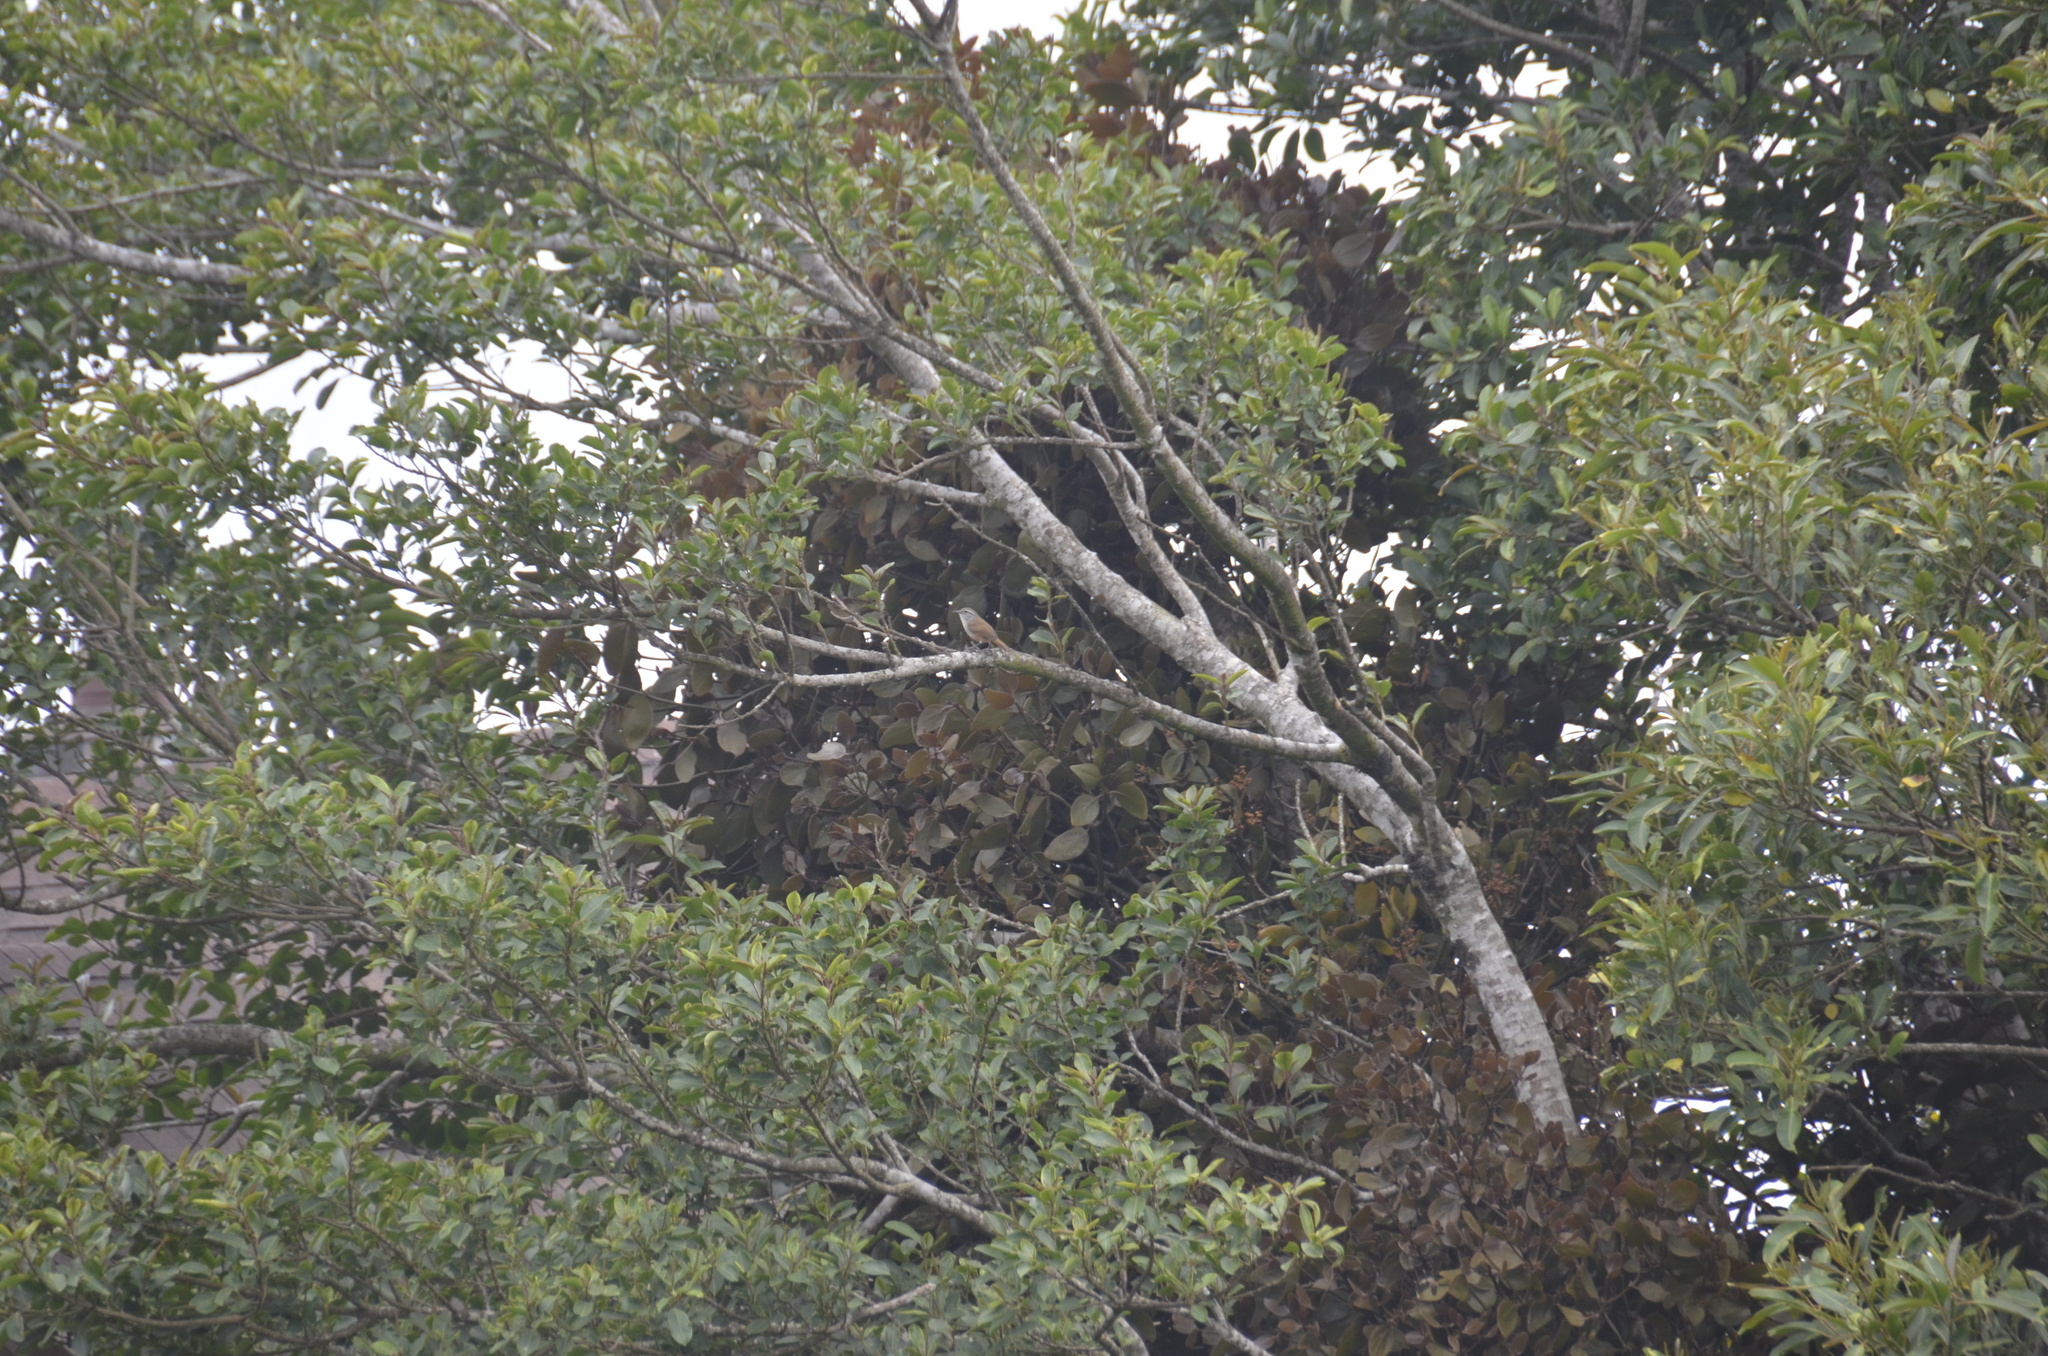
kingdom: Animalia
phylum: Chordata
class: Aves
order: Passeriformes
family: Troglodytidae
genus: Cantorchilus
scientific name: Cantorchilus modestus
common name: Cabanis's wren
